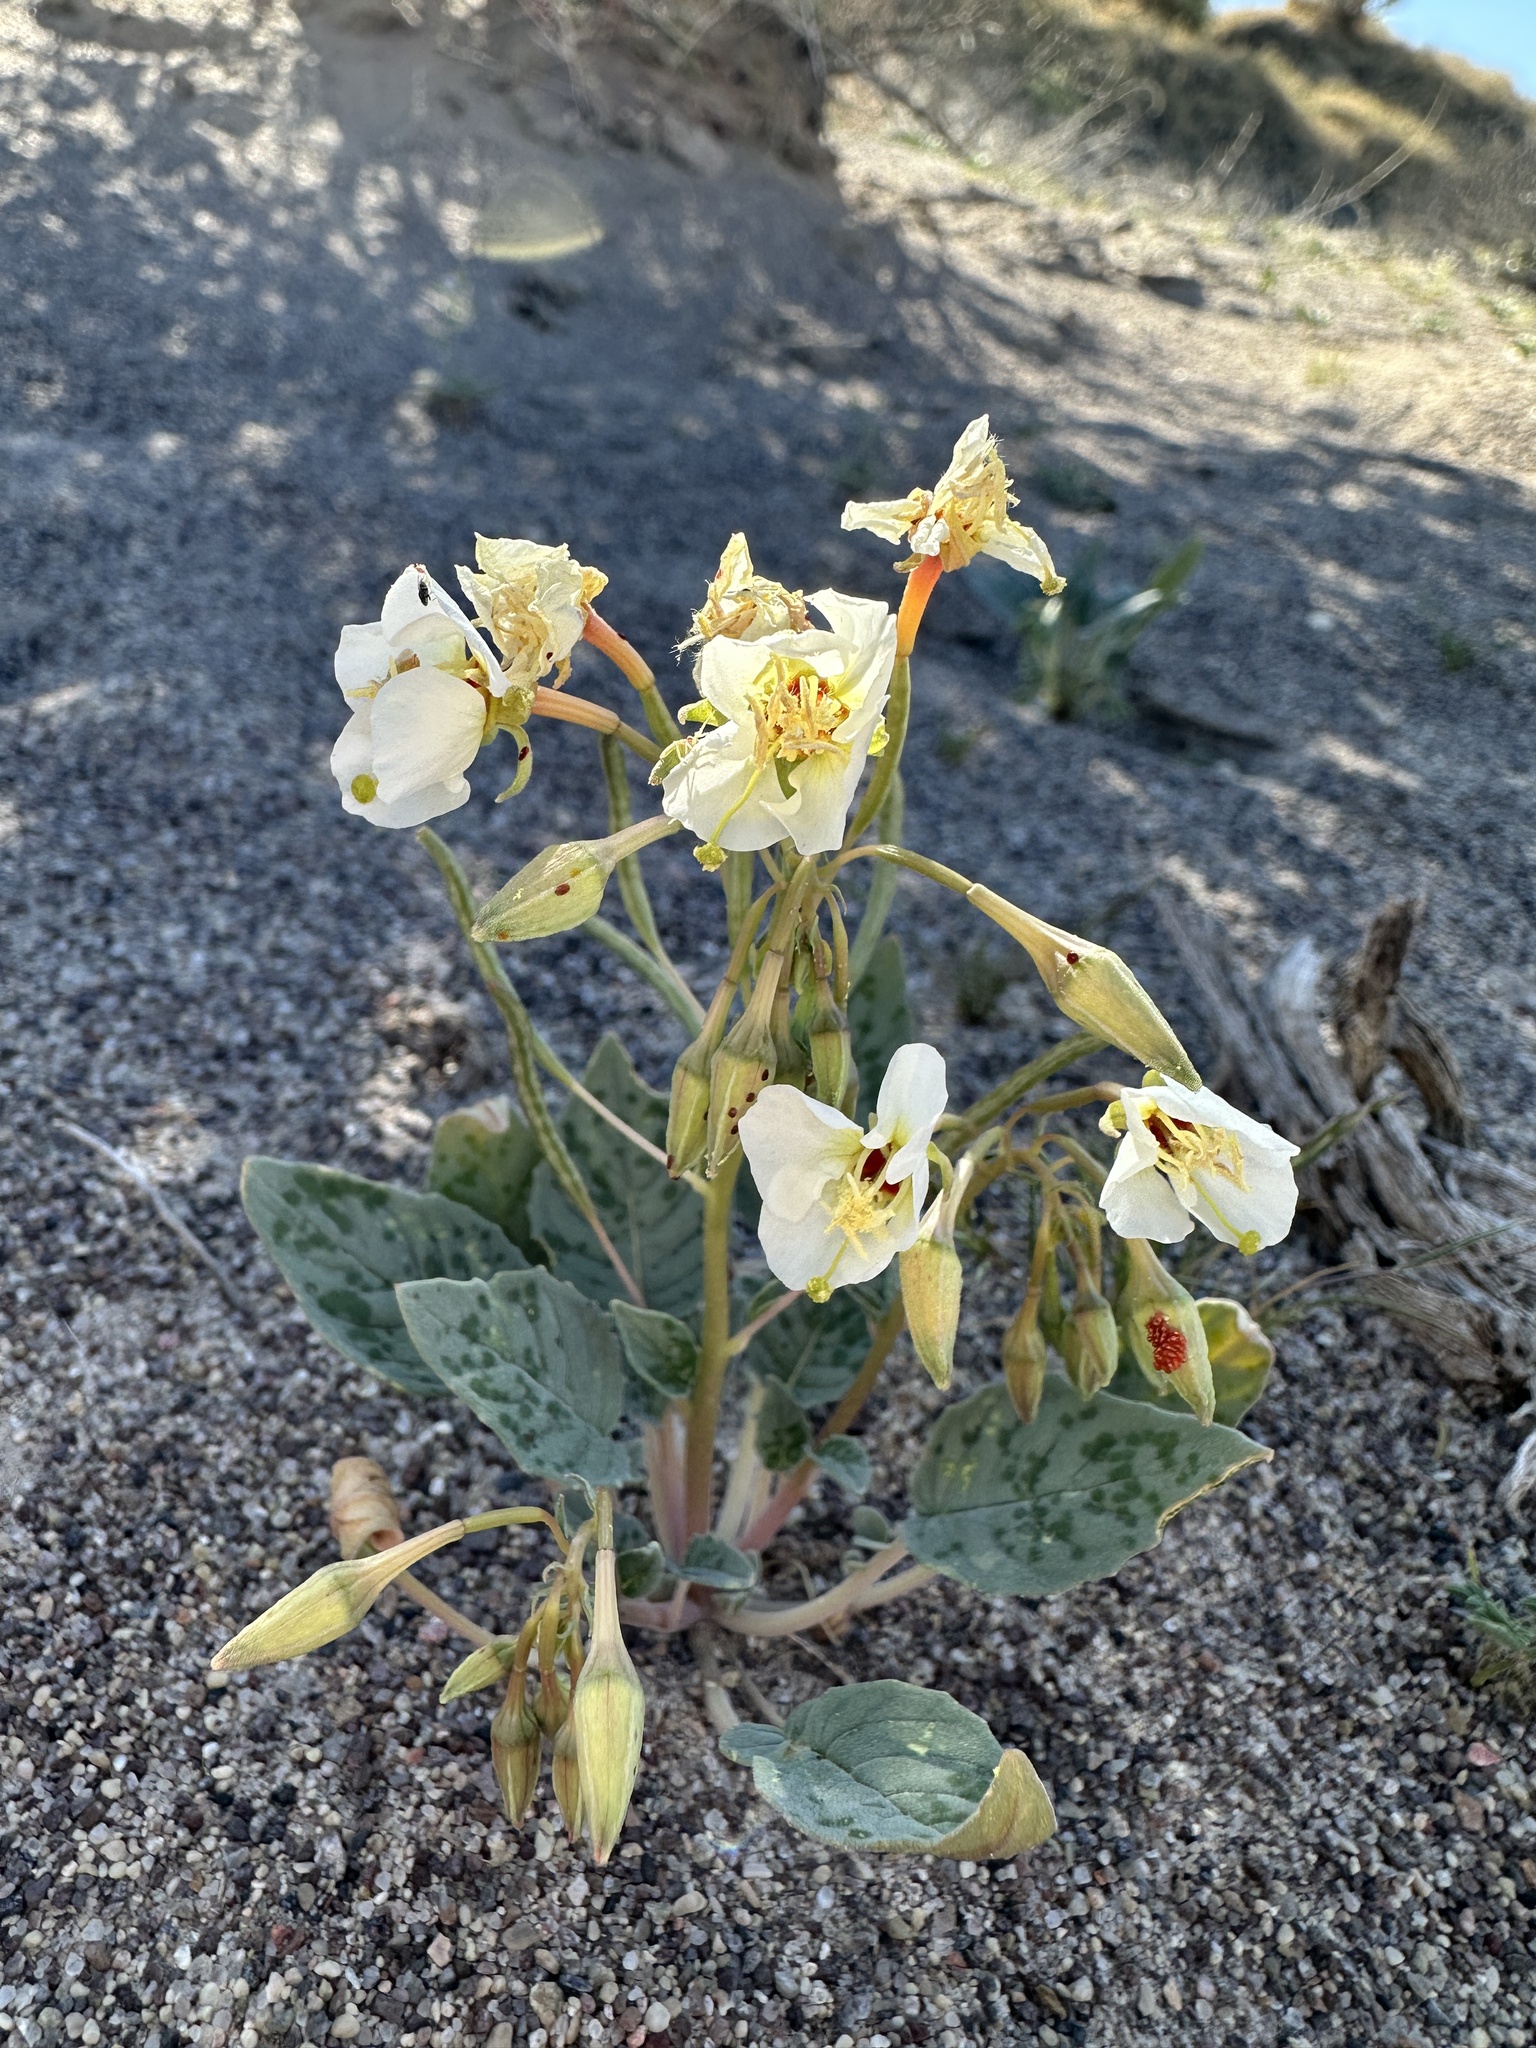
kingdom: Plantae
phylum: Tracheophyta
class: Magnoliopsida
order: Myrtales
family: Onagraceae
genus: Chylismia
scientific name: Chylismia claviformis
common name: Browneyes
